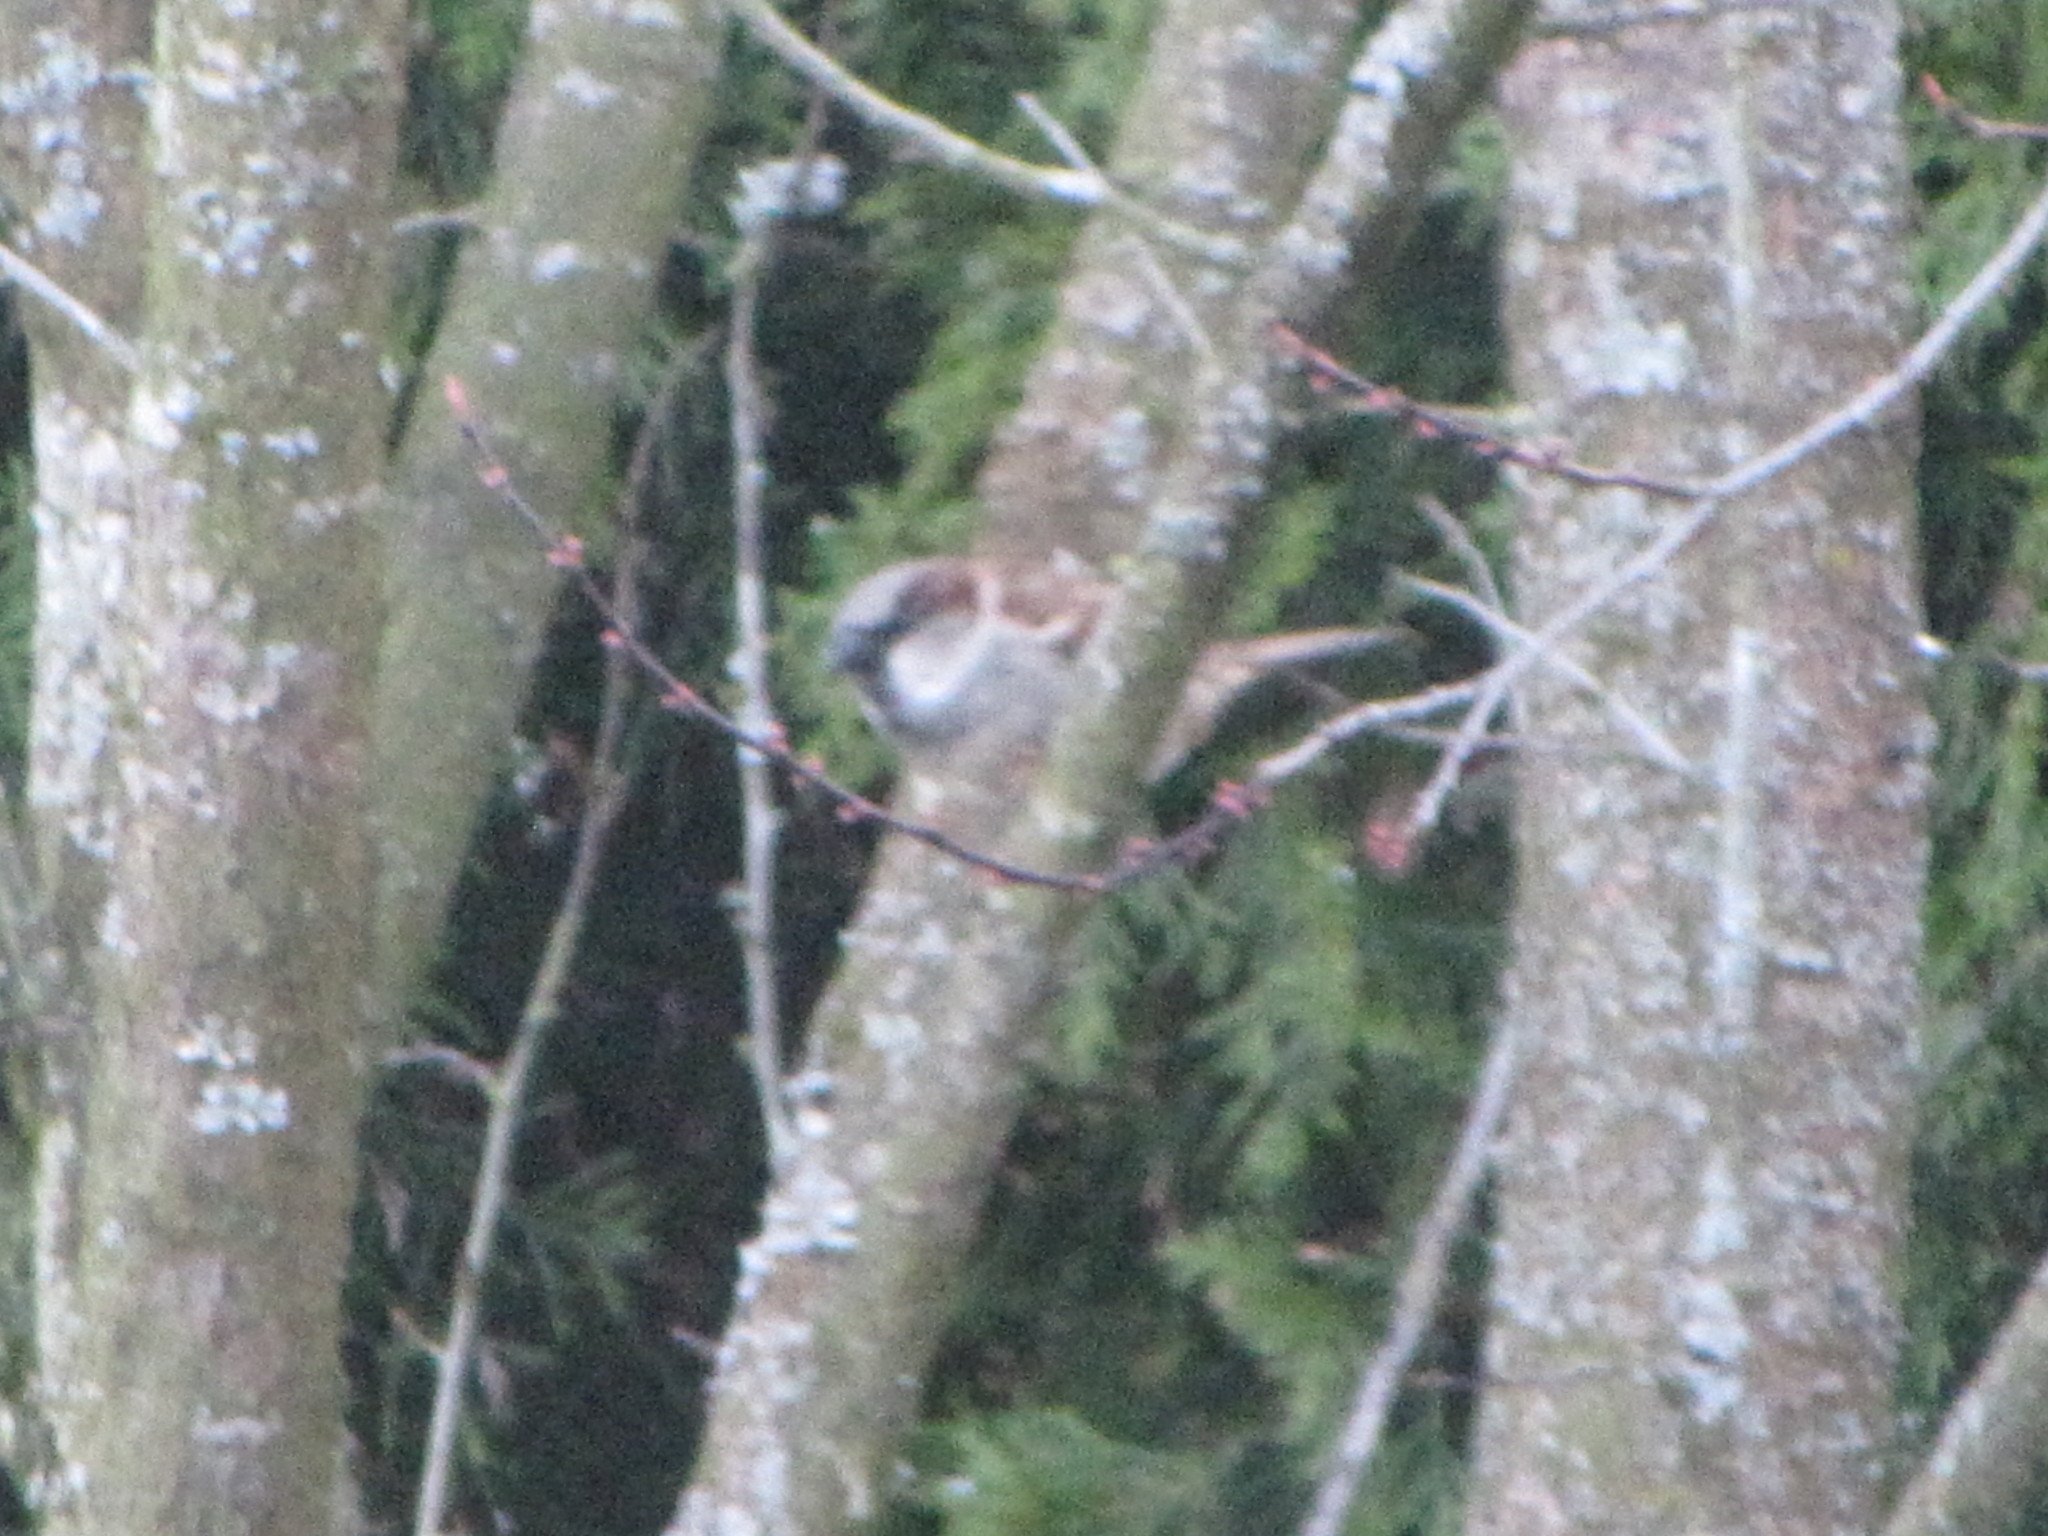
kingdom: Animalia
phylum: Chordata
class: Aves
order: Passeriformes
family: Passeridae
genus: Passer
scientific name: Passer domesticus
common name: House sparrow
